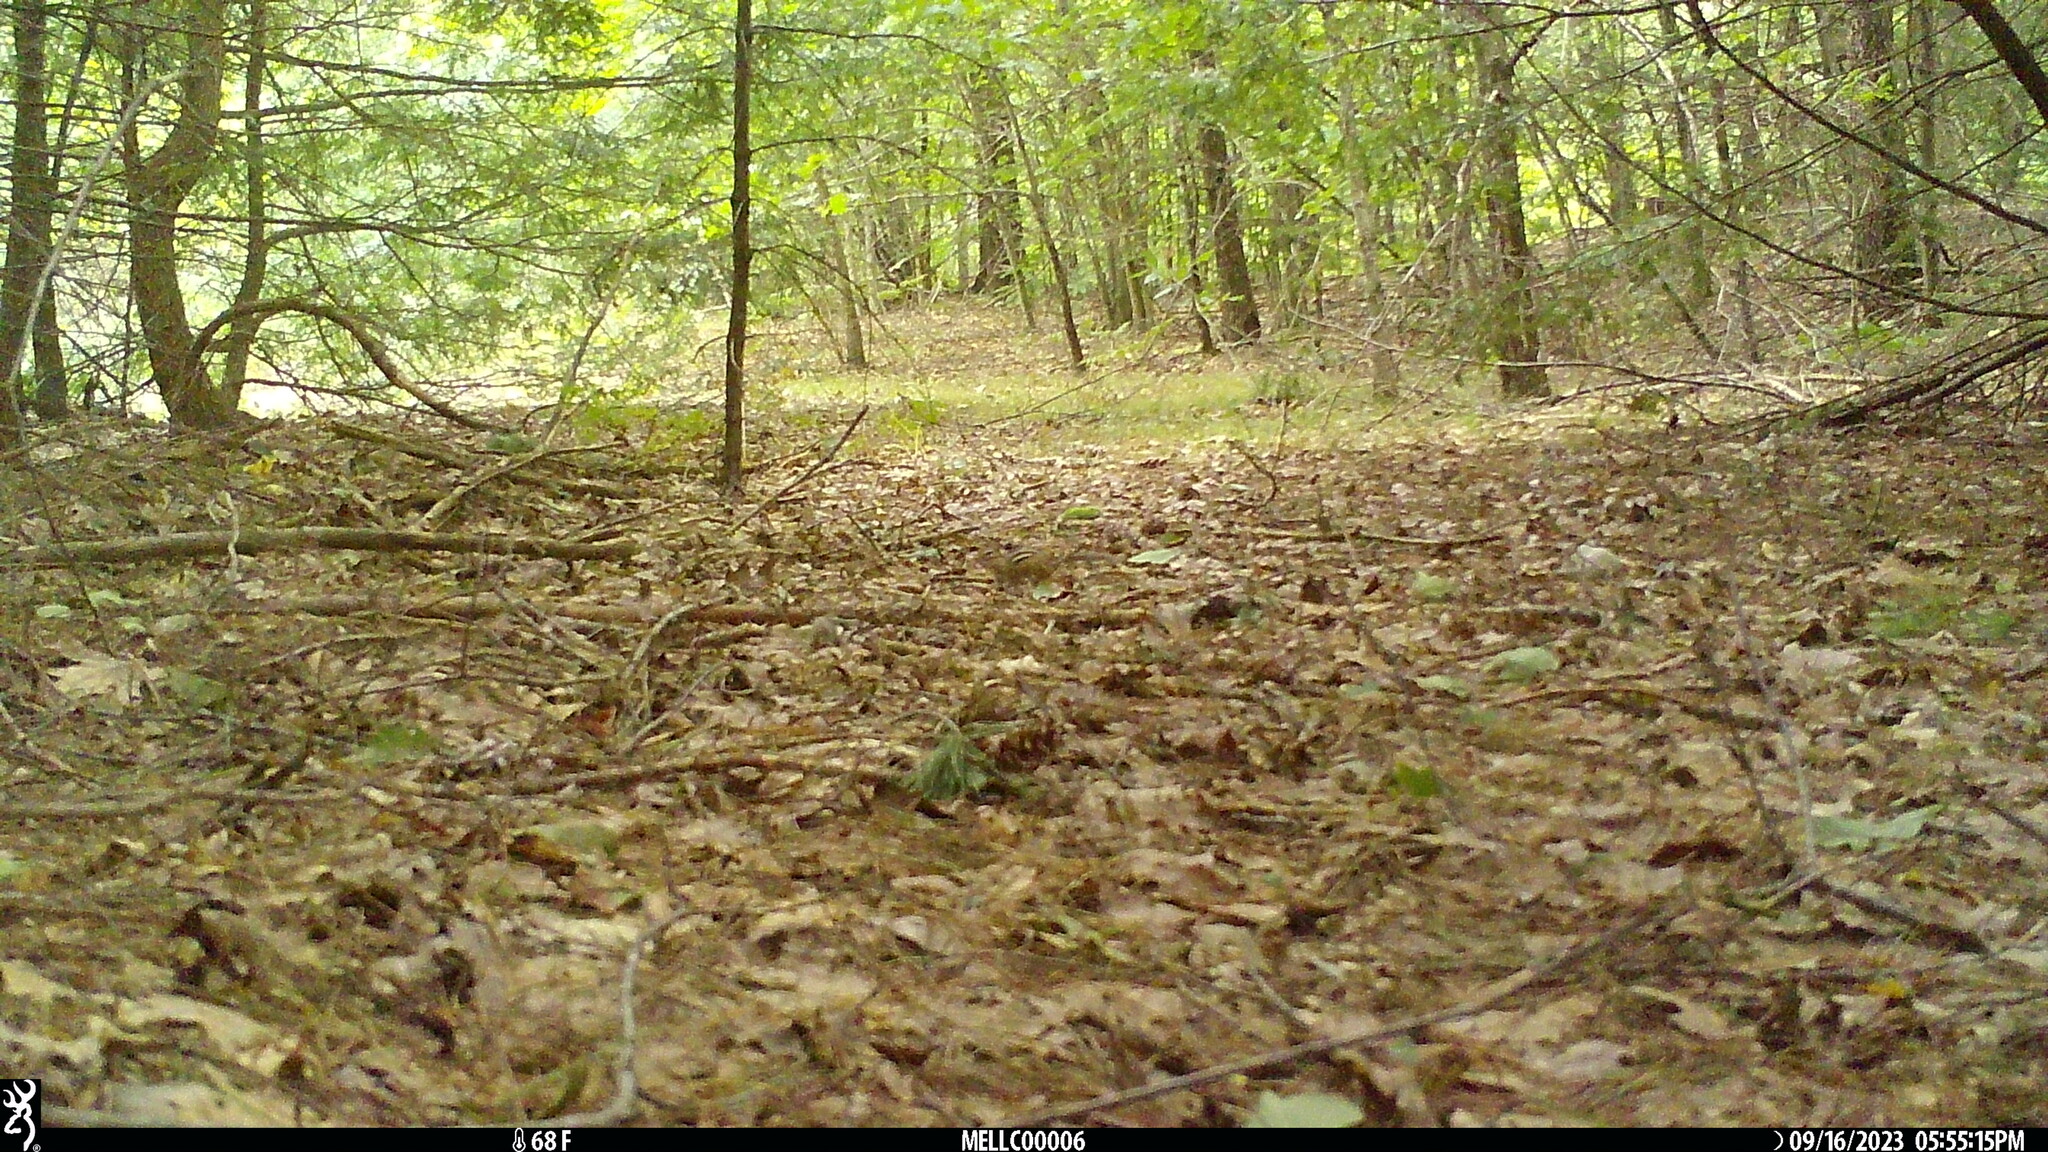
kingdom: Animalia
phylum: Chordata
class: Mammalia
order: Rodentia
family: Sciuridae
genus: Tamias
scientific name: Tamias striatus
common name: Eastern chipmunk
